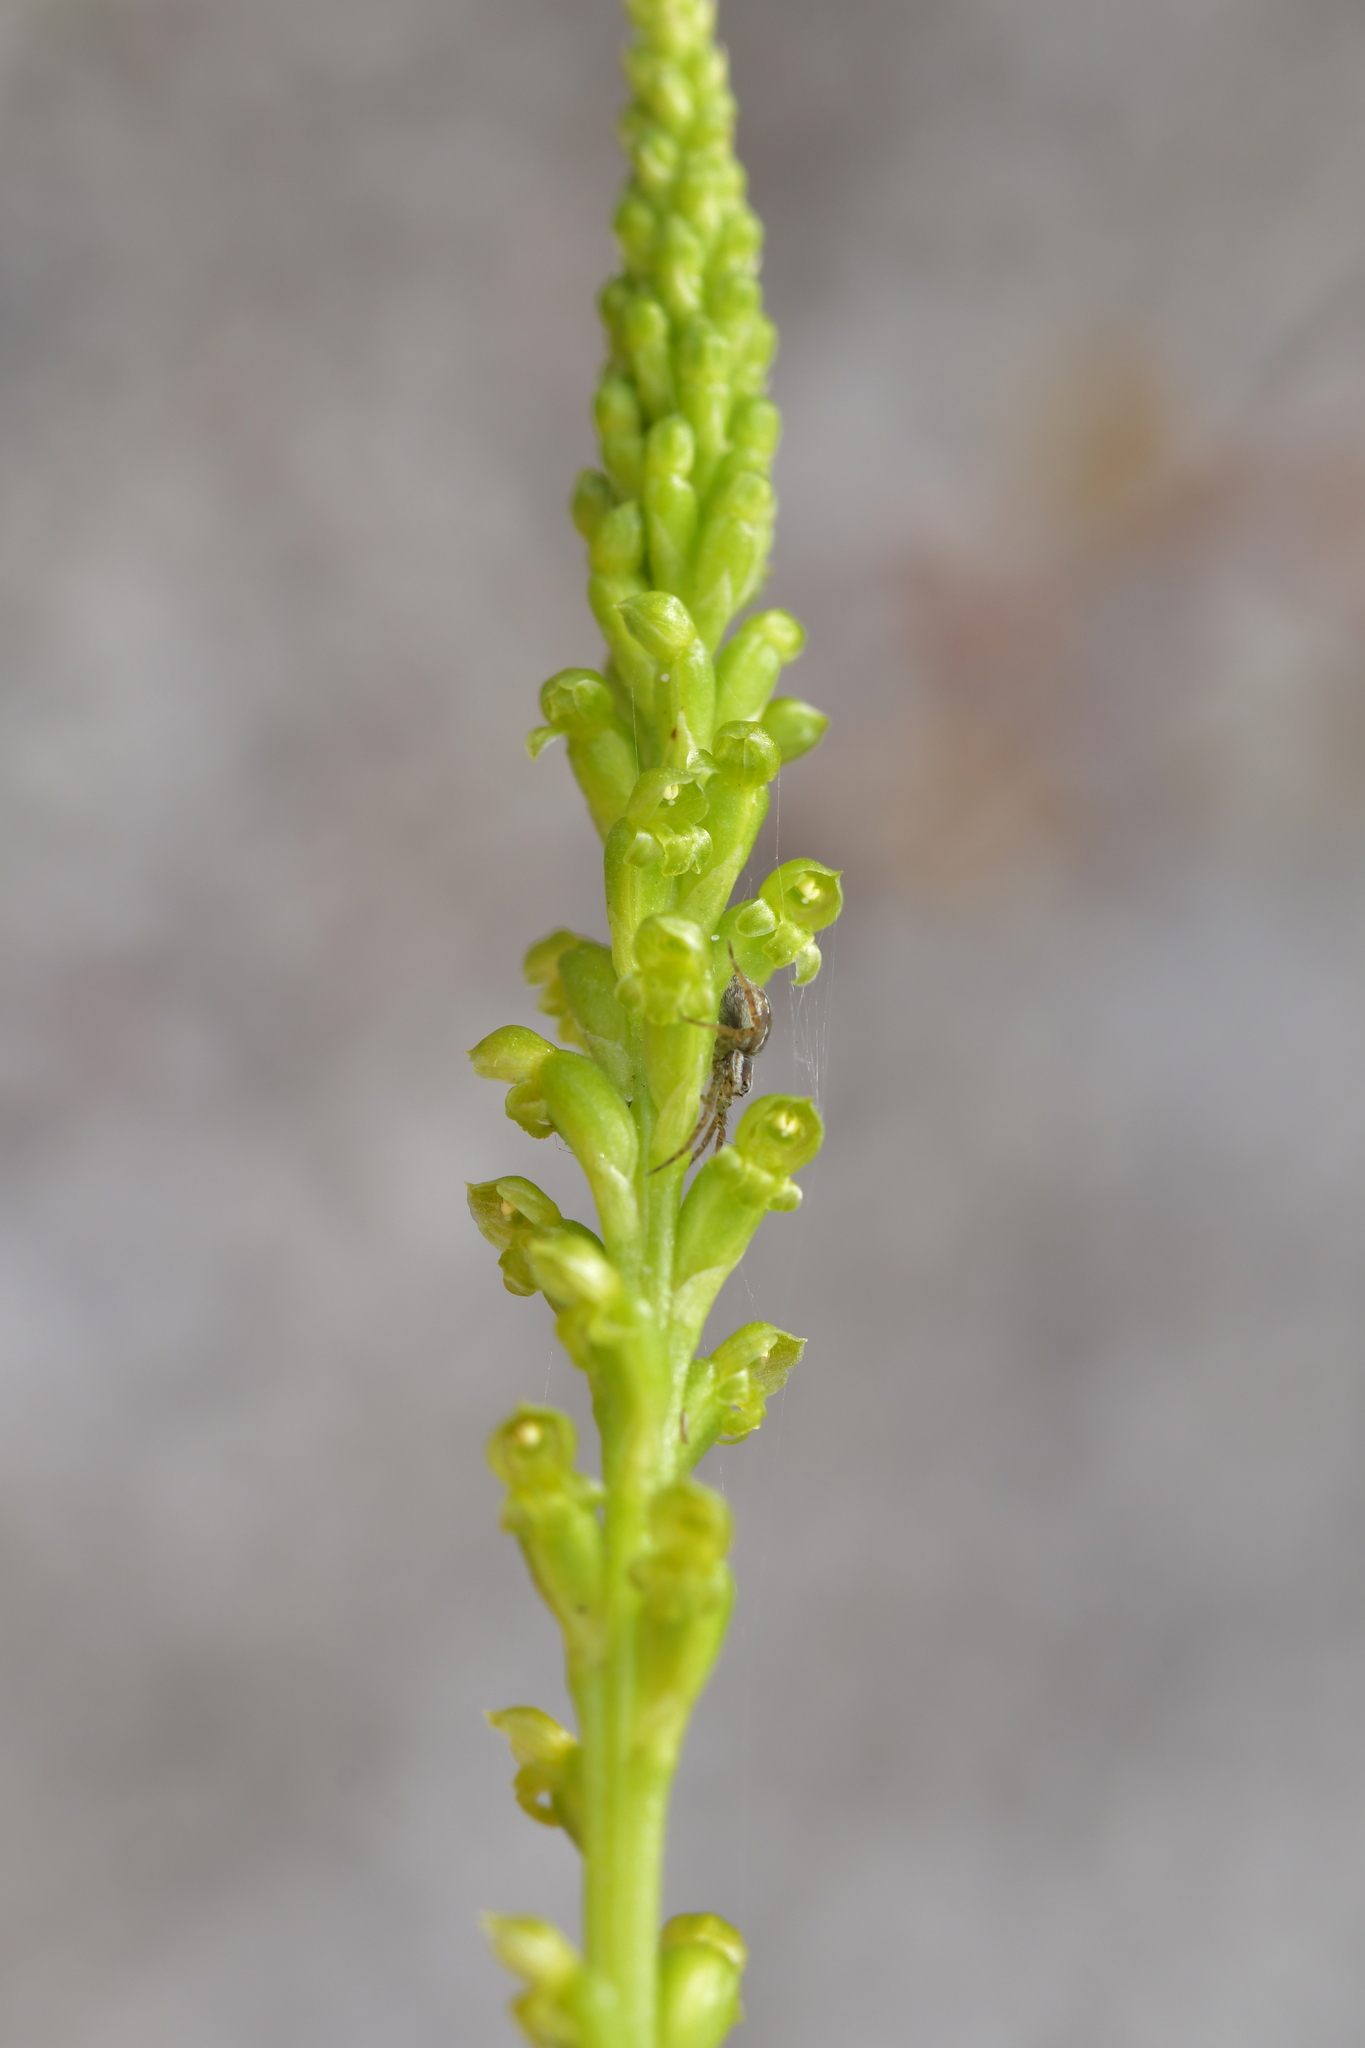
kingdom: Plantae
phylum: Tracheophyta
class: Liliopsida
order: Asparagales
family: Orchidaceae
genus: Microtis
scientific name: Microtis parviflora
